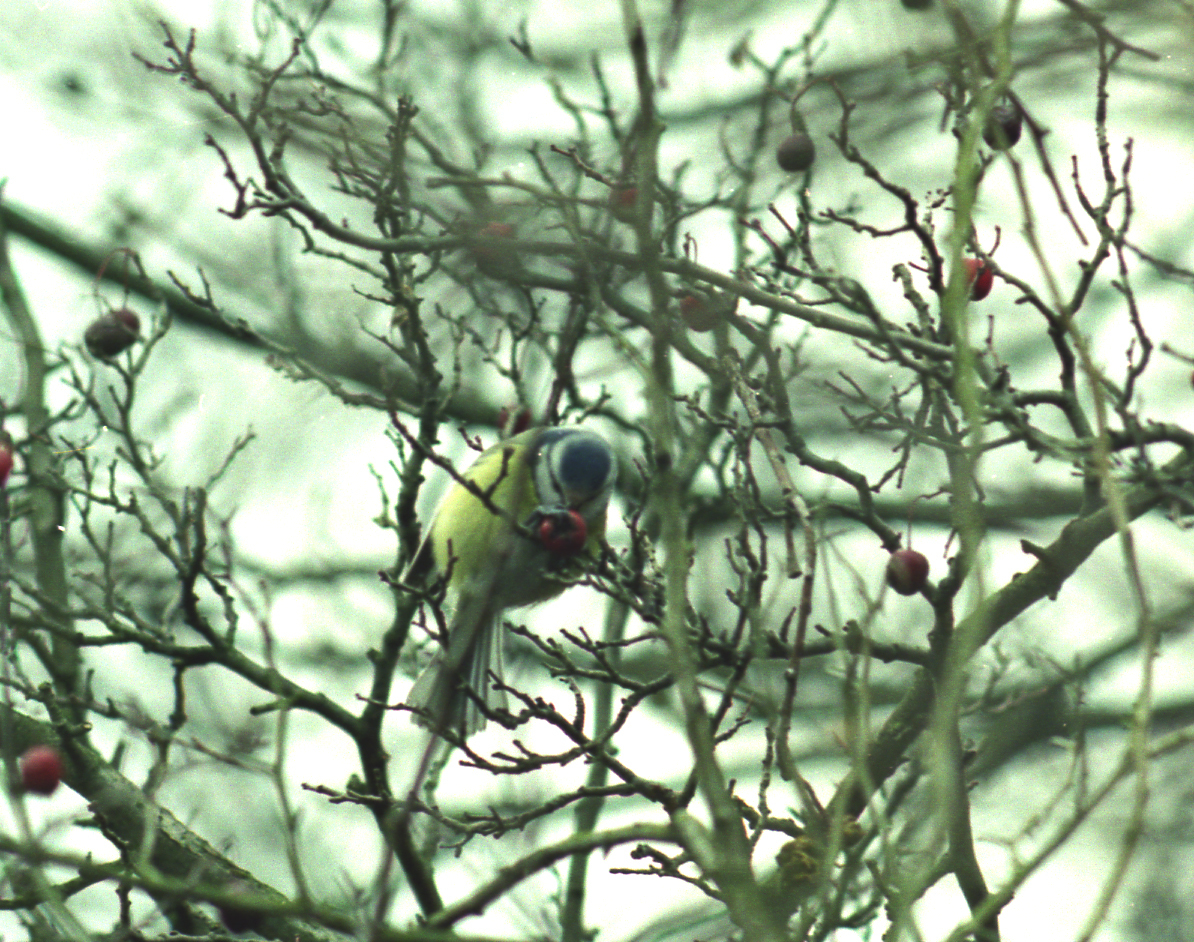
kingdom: Animalia
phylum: Chordata
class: Aves
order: Passeriformes
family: Paridae
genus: Cyanistes
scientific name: Cyanistes caeruleus
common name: Eurasian blue tit
